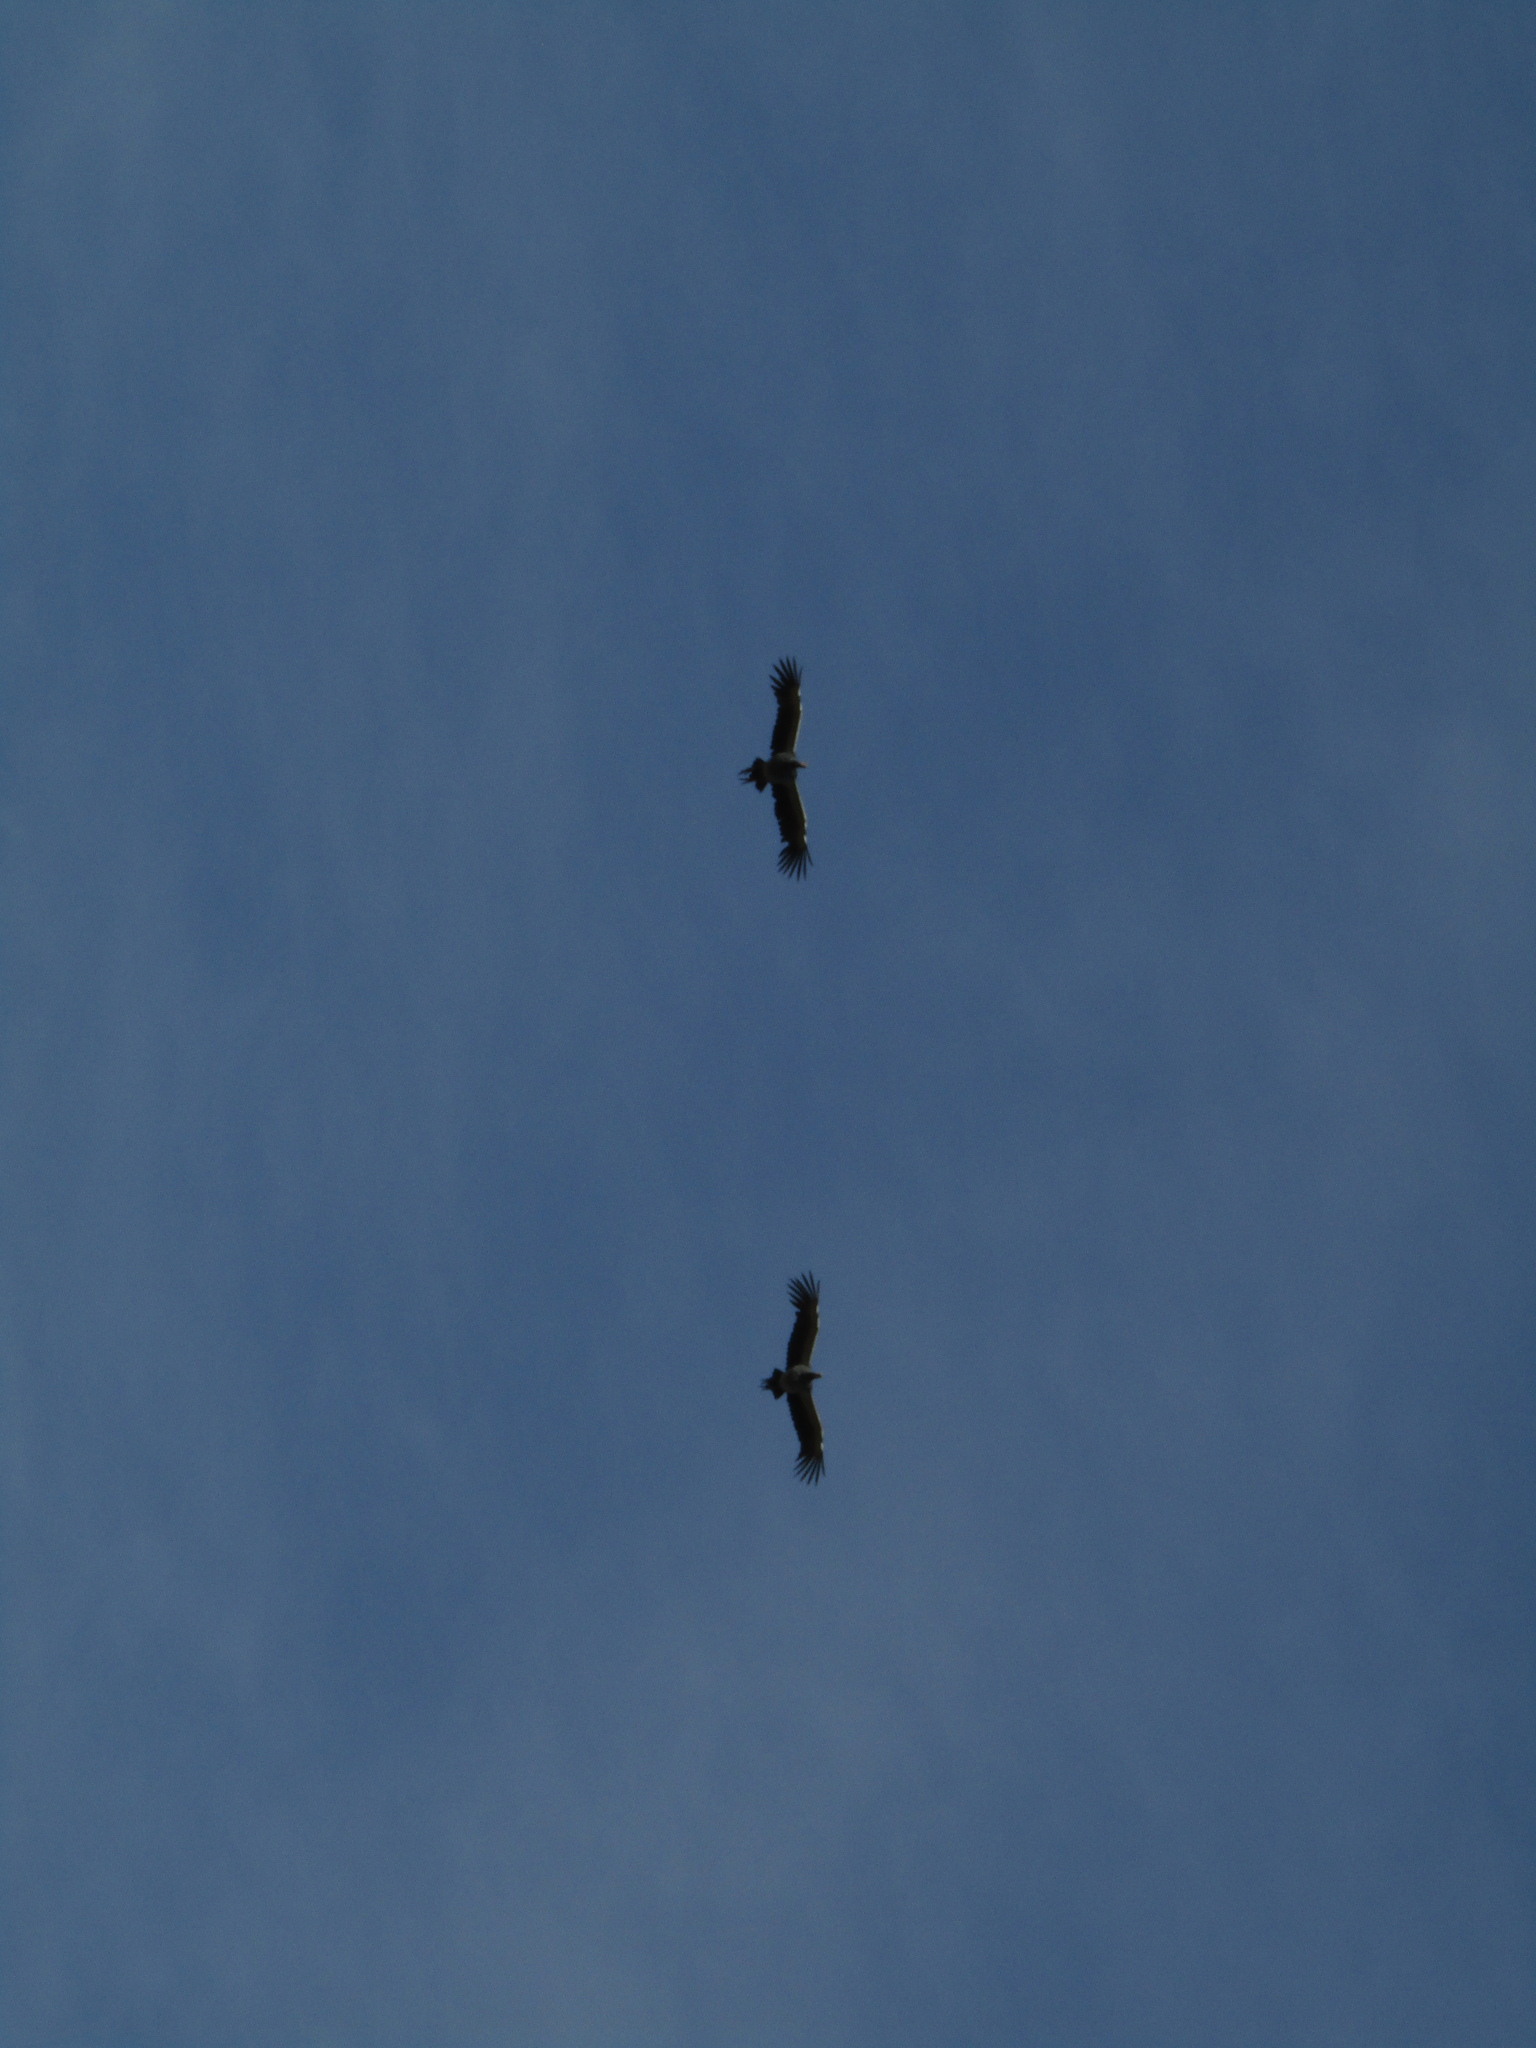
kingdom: Animalia
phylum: Chordata
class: Aves
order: Anseriformes
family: Anhimidae
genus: Chauna
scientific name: Chauna torquata
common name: Southern screamer
